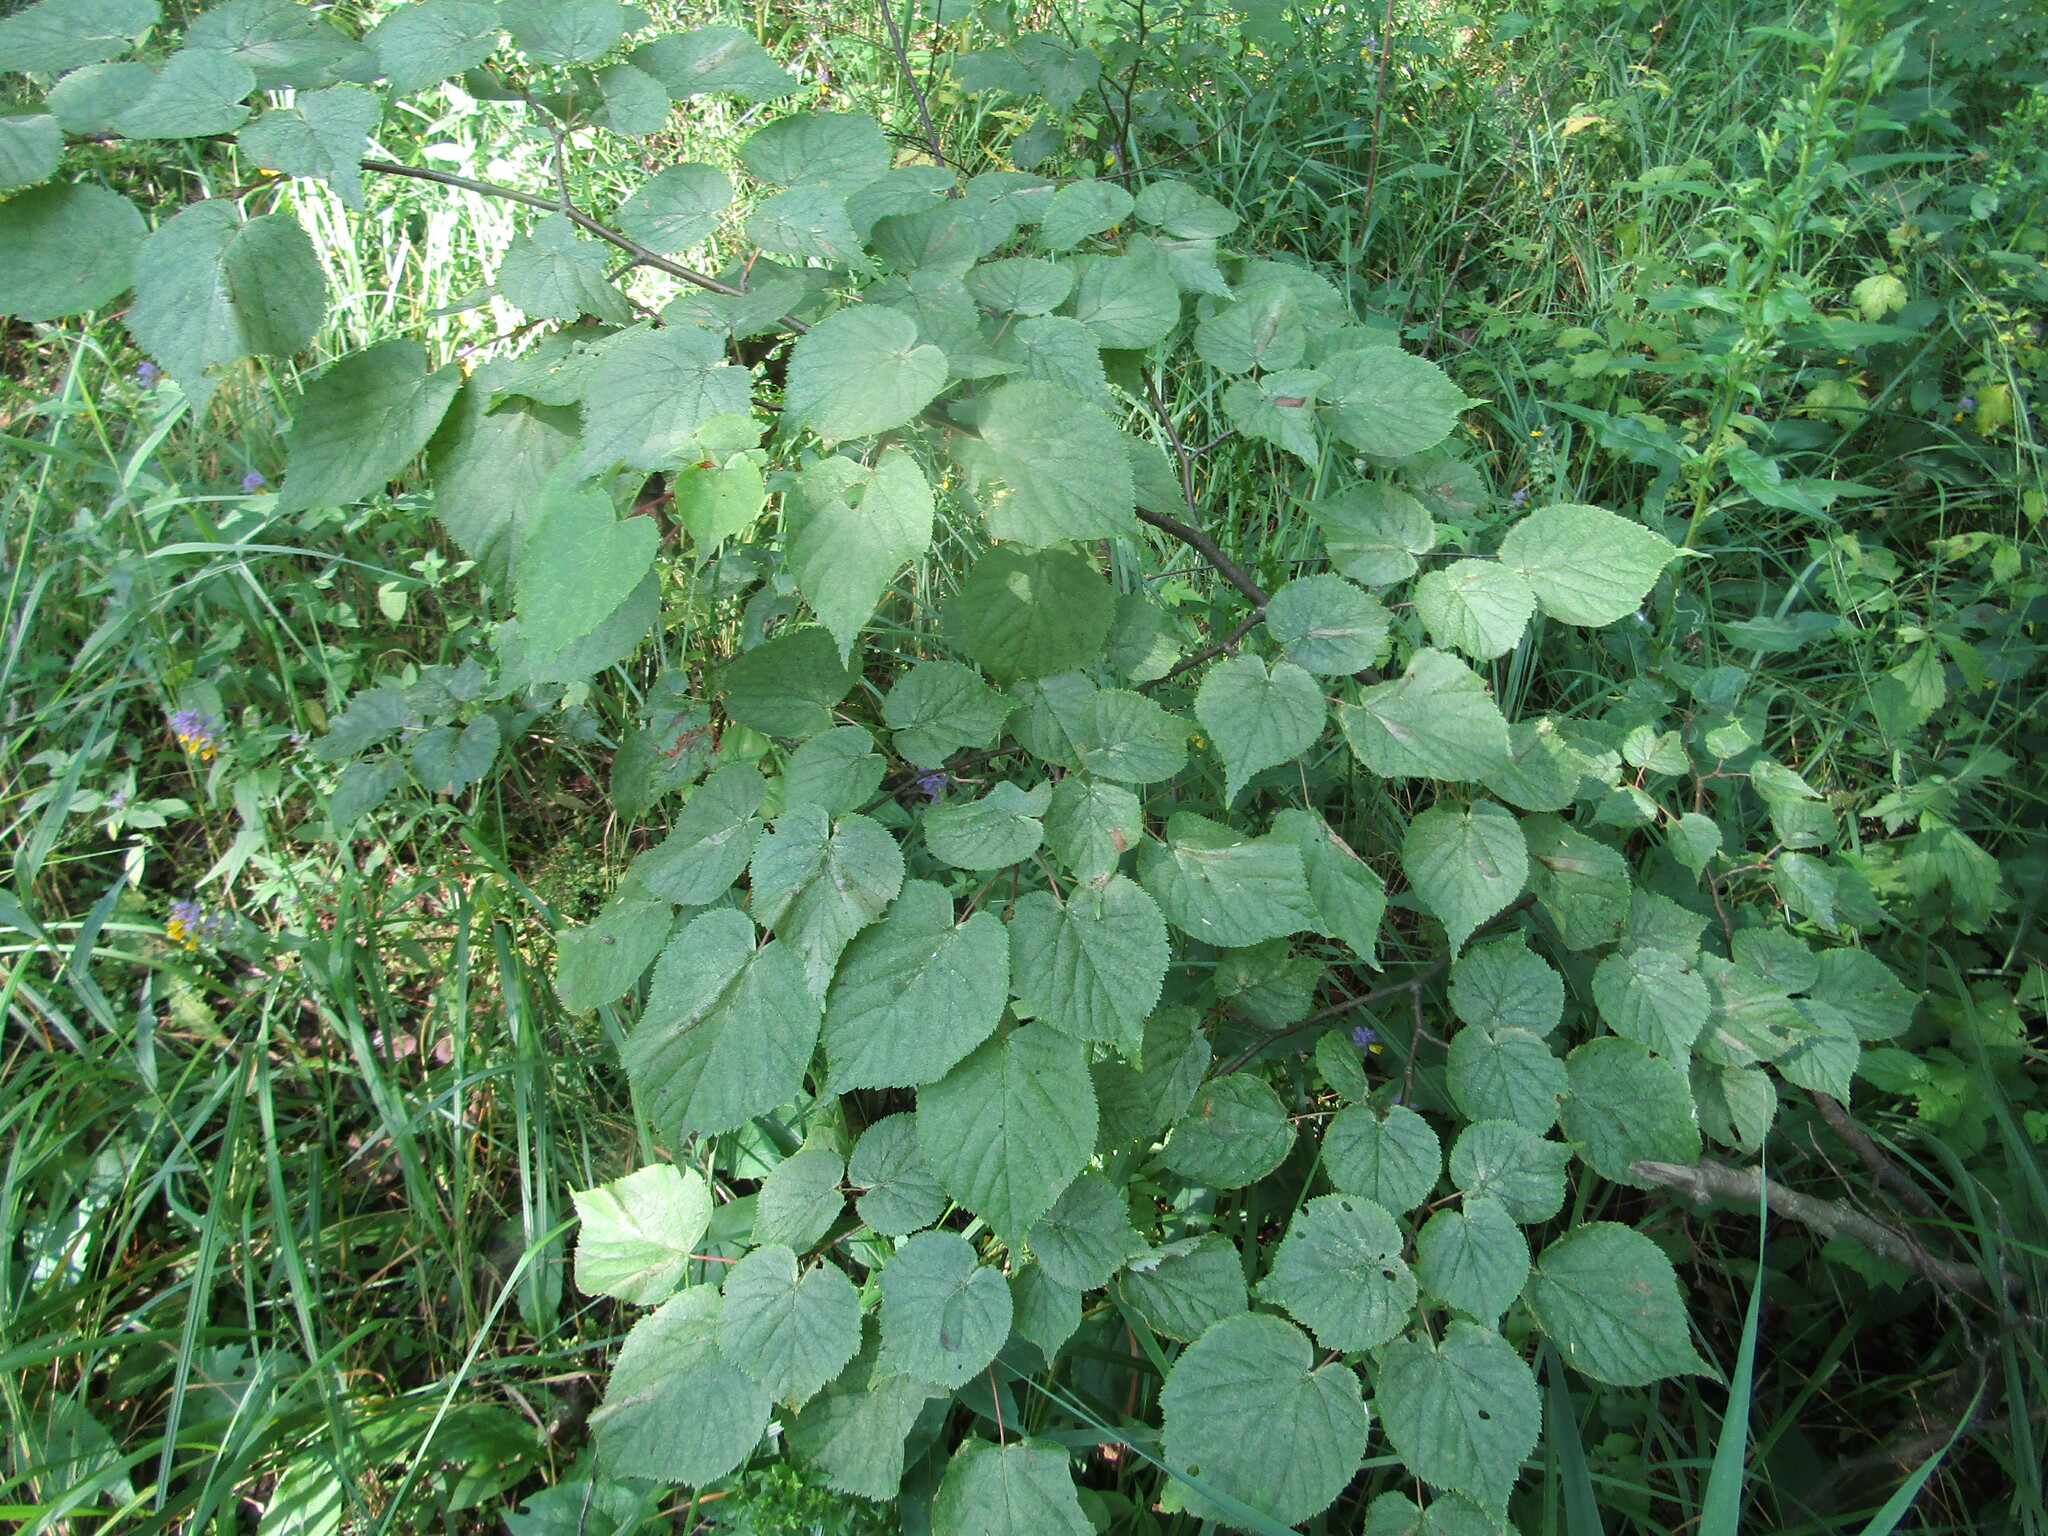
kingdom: Plantae
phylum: Tracheophyta
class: Magnoliopsida
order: Malvales
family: Malvaceae
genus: Tilia
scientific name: Tilia cordata
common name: Small-leaved lime
